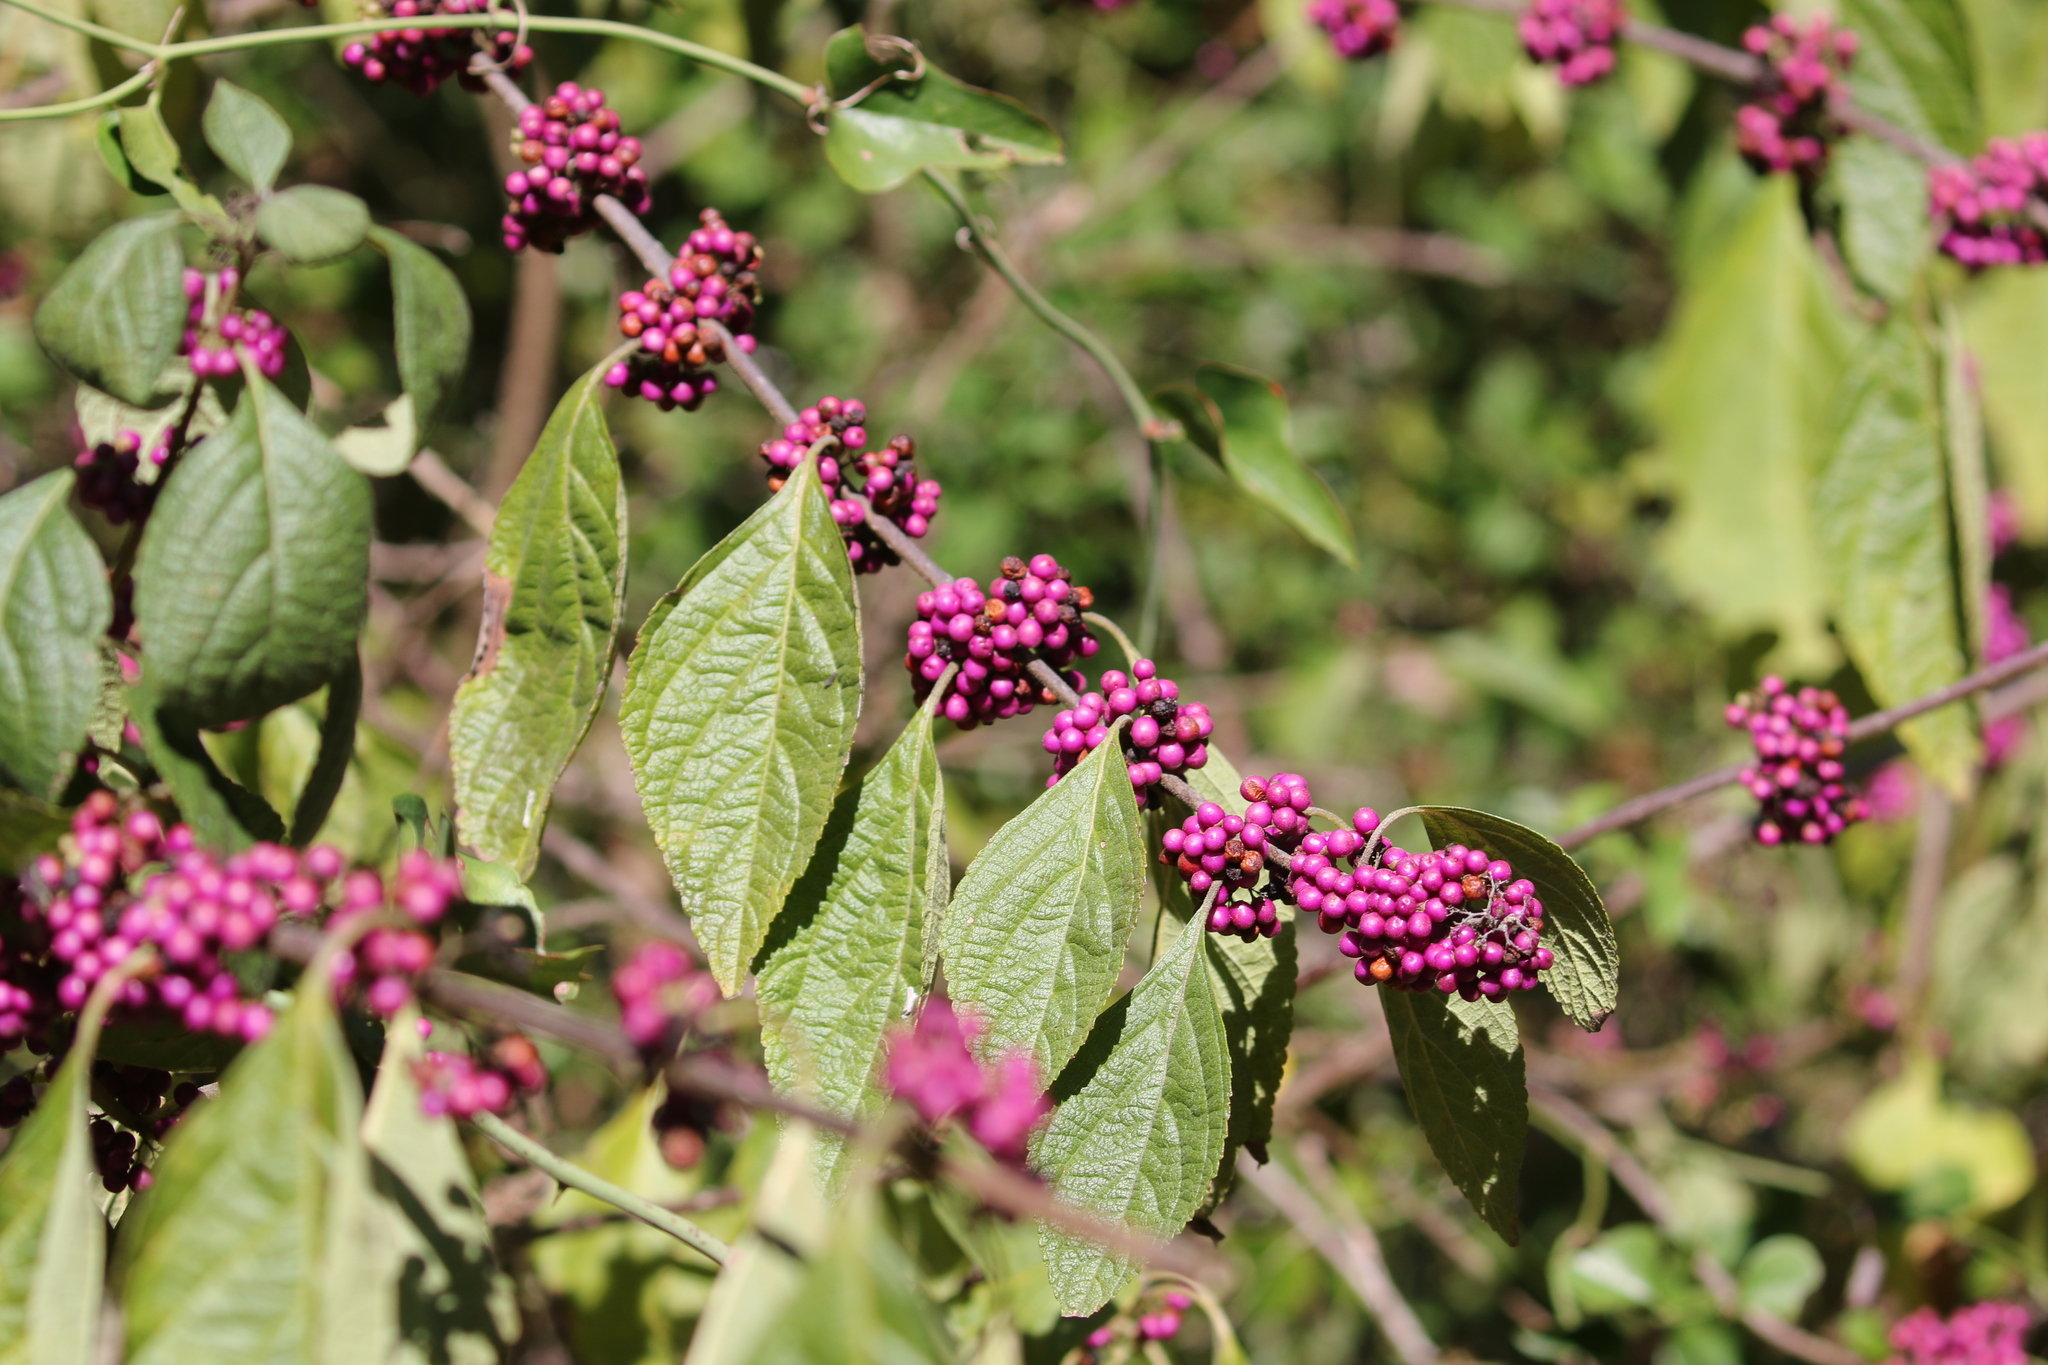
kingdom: Plantae
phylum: Tracheophyta
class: Magnoliopsida
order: Lamiales
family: Lamiaceae
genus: Callicarpa
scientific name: Callicarpa americana
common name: American beautyberry
